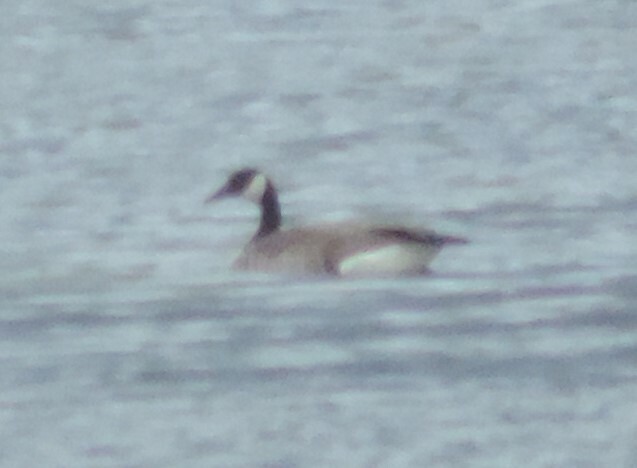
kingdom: Animalia
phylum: Chordata
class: Aves
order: Anseriformes
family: Anatidae
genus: Branta
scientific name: Branta canadensis
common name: Canada goose
